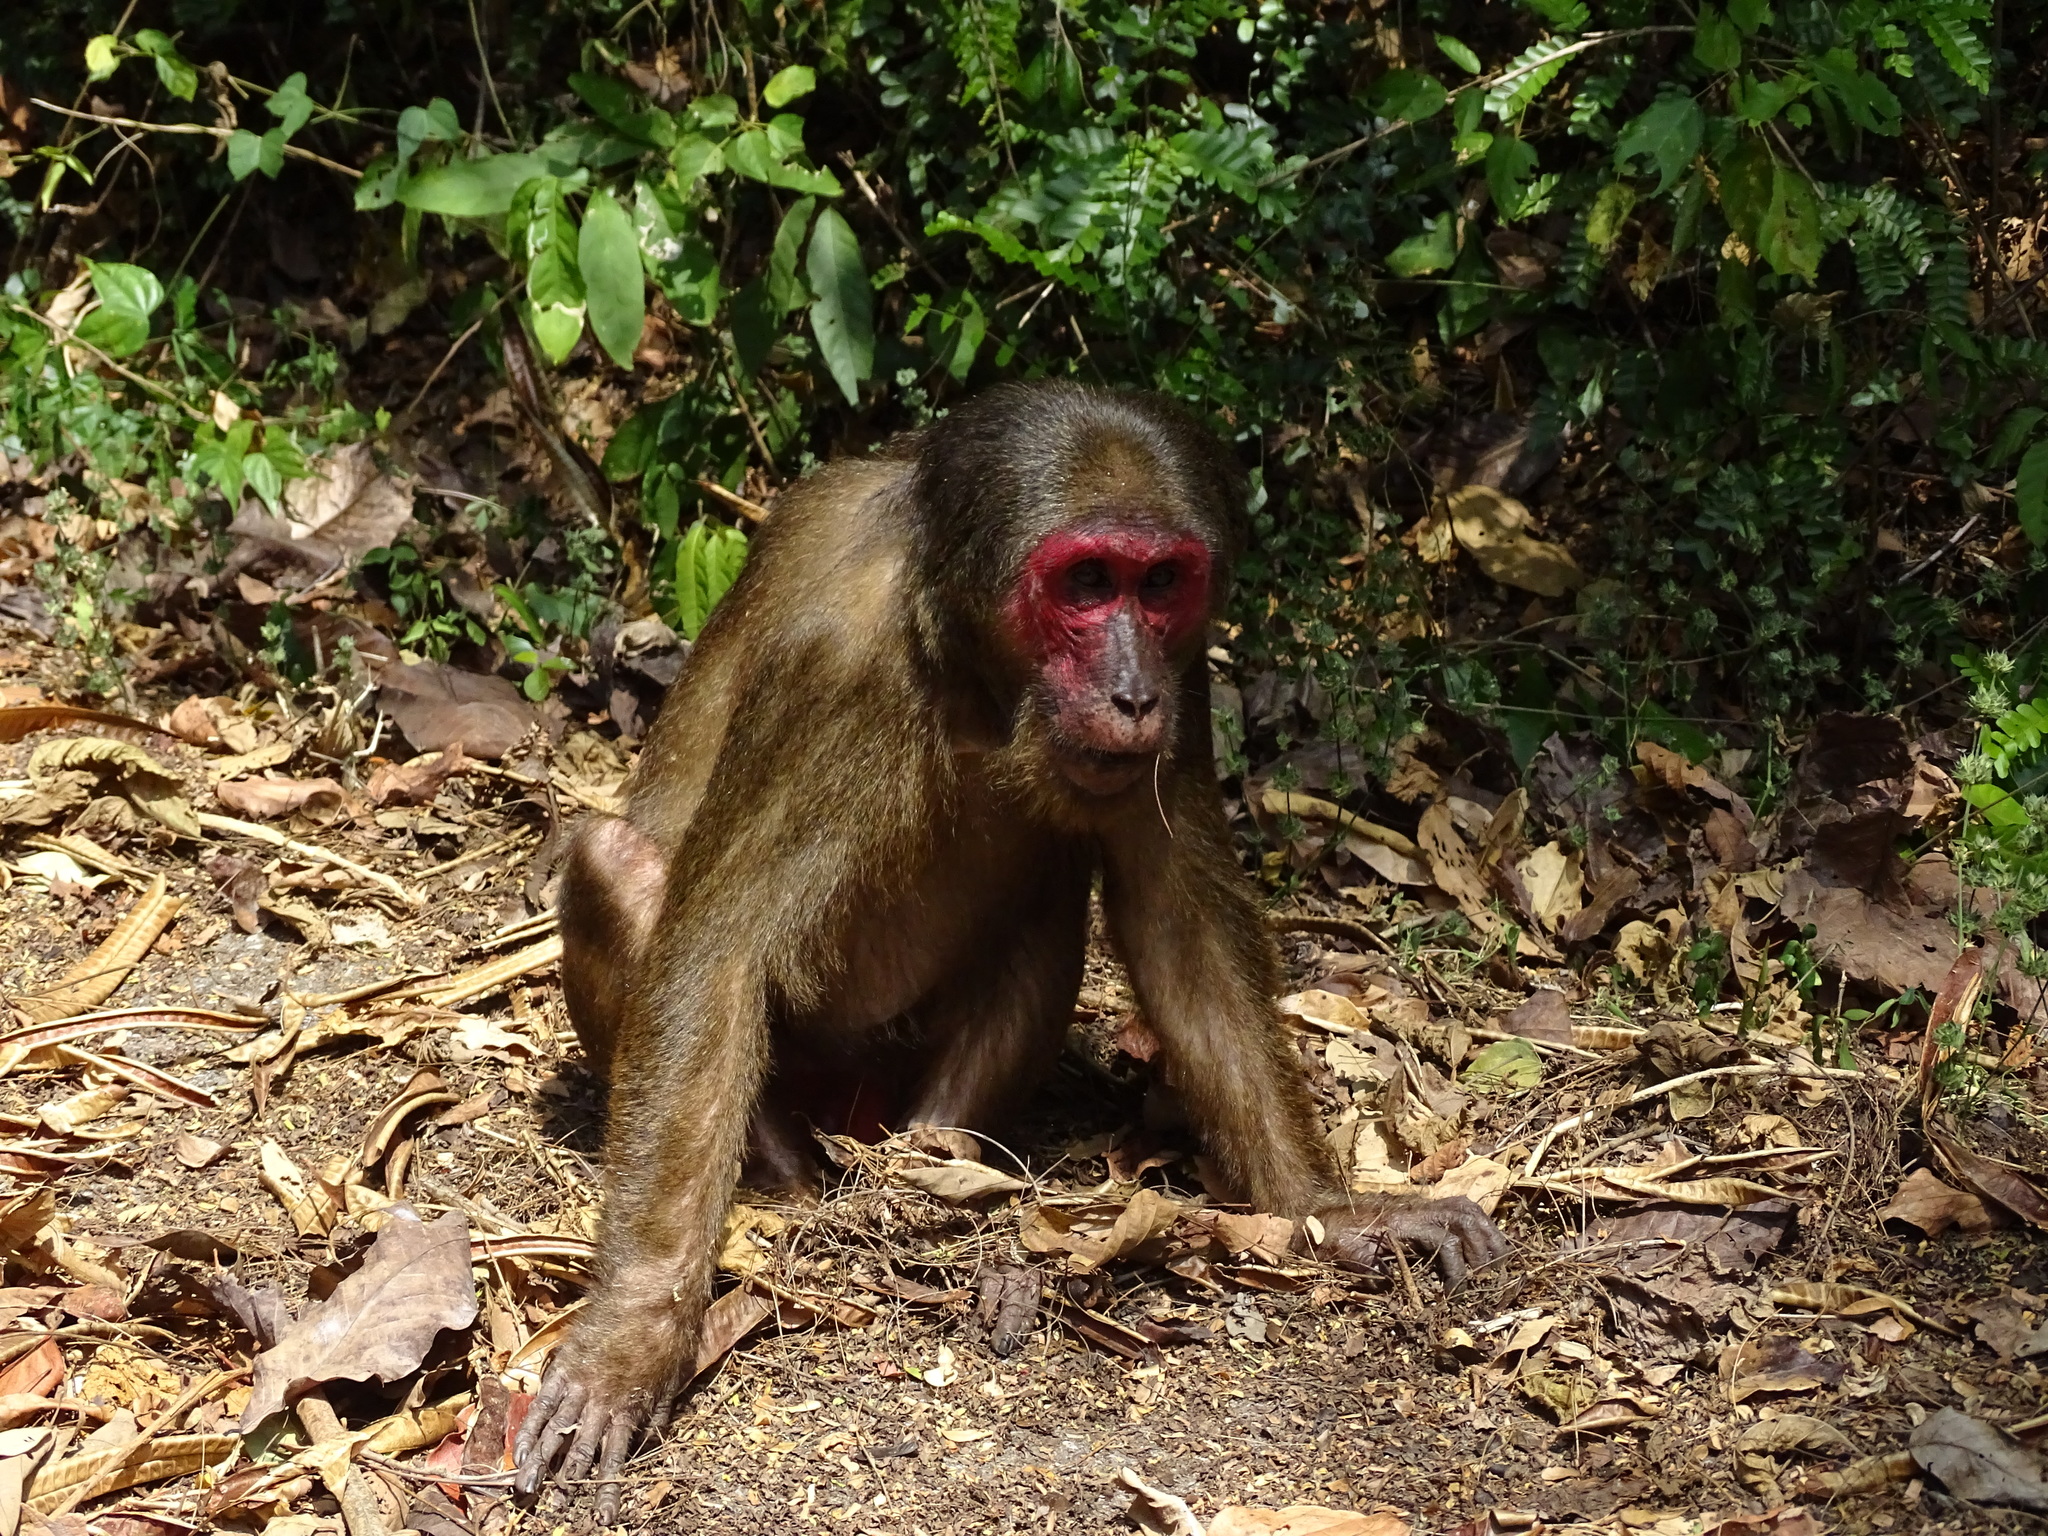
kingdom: Animalia
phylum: Chordata
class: Mammalia
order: Primates
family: Cercopithecidae
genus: Macaca
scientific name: Macaca arctoides
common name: Stump-tailed macaque
